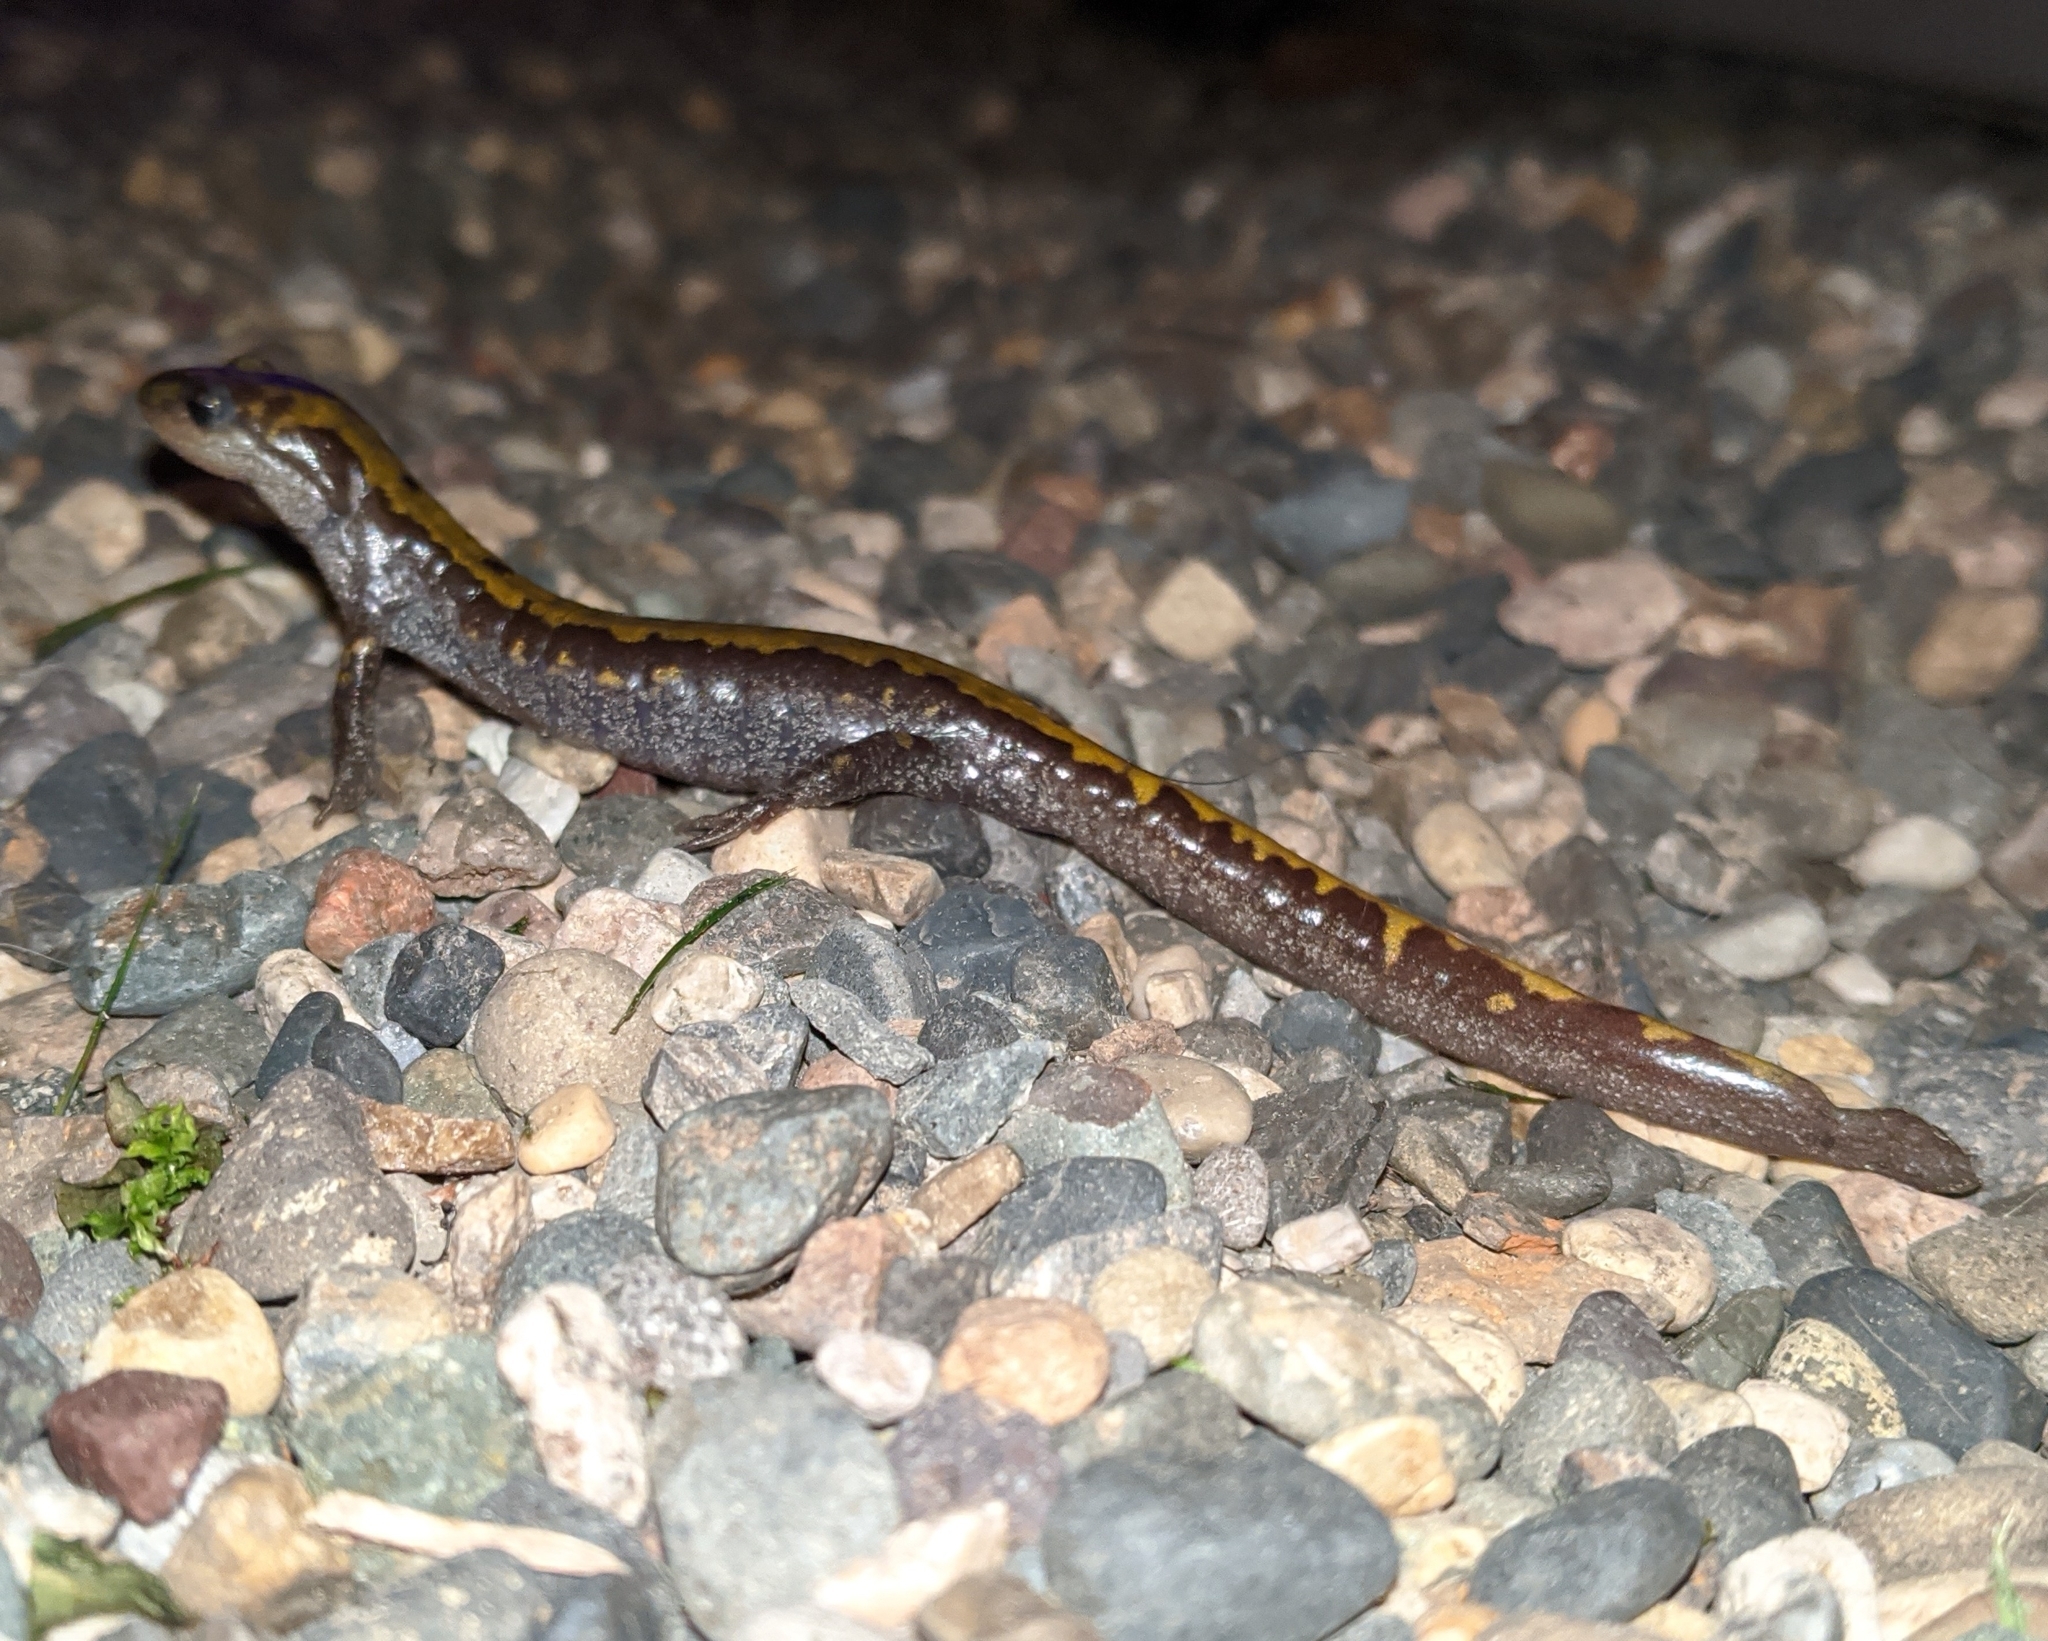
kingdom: Animalia
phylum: Chordata
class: Amphibia
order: Caudata
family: Ambystomatidae
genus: Ambystoma
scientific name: Ambystoma macrodactylum
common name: Long-toed salamander
